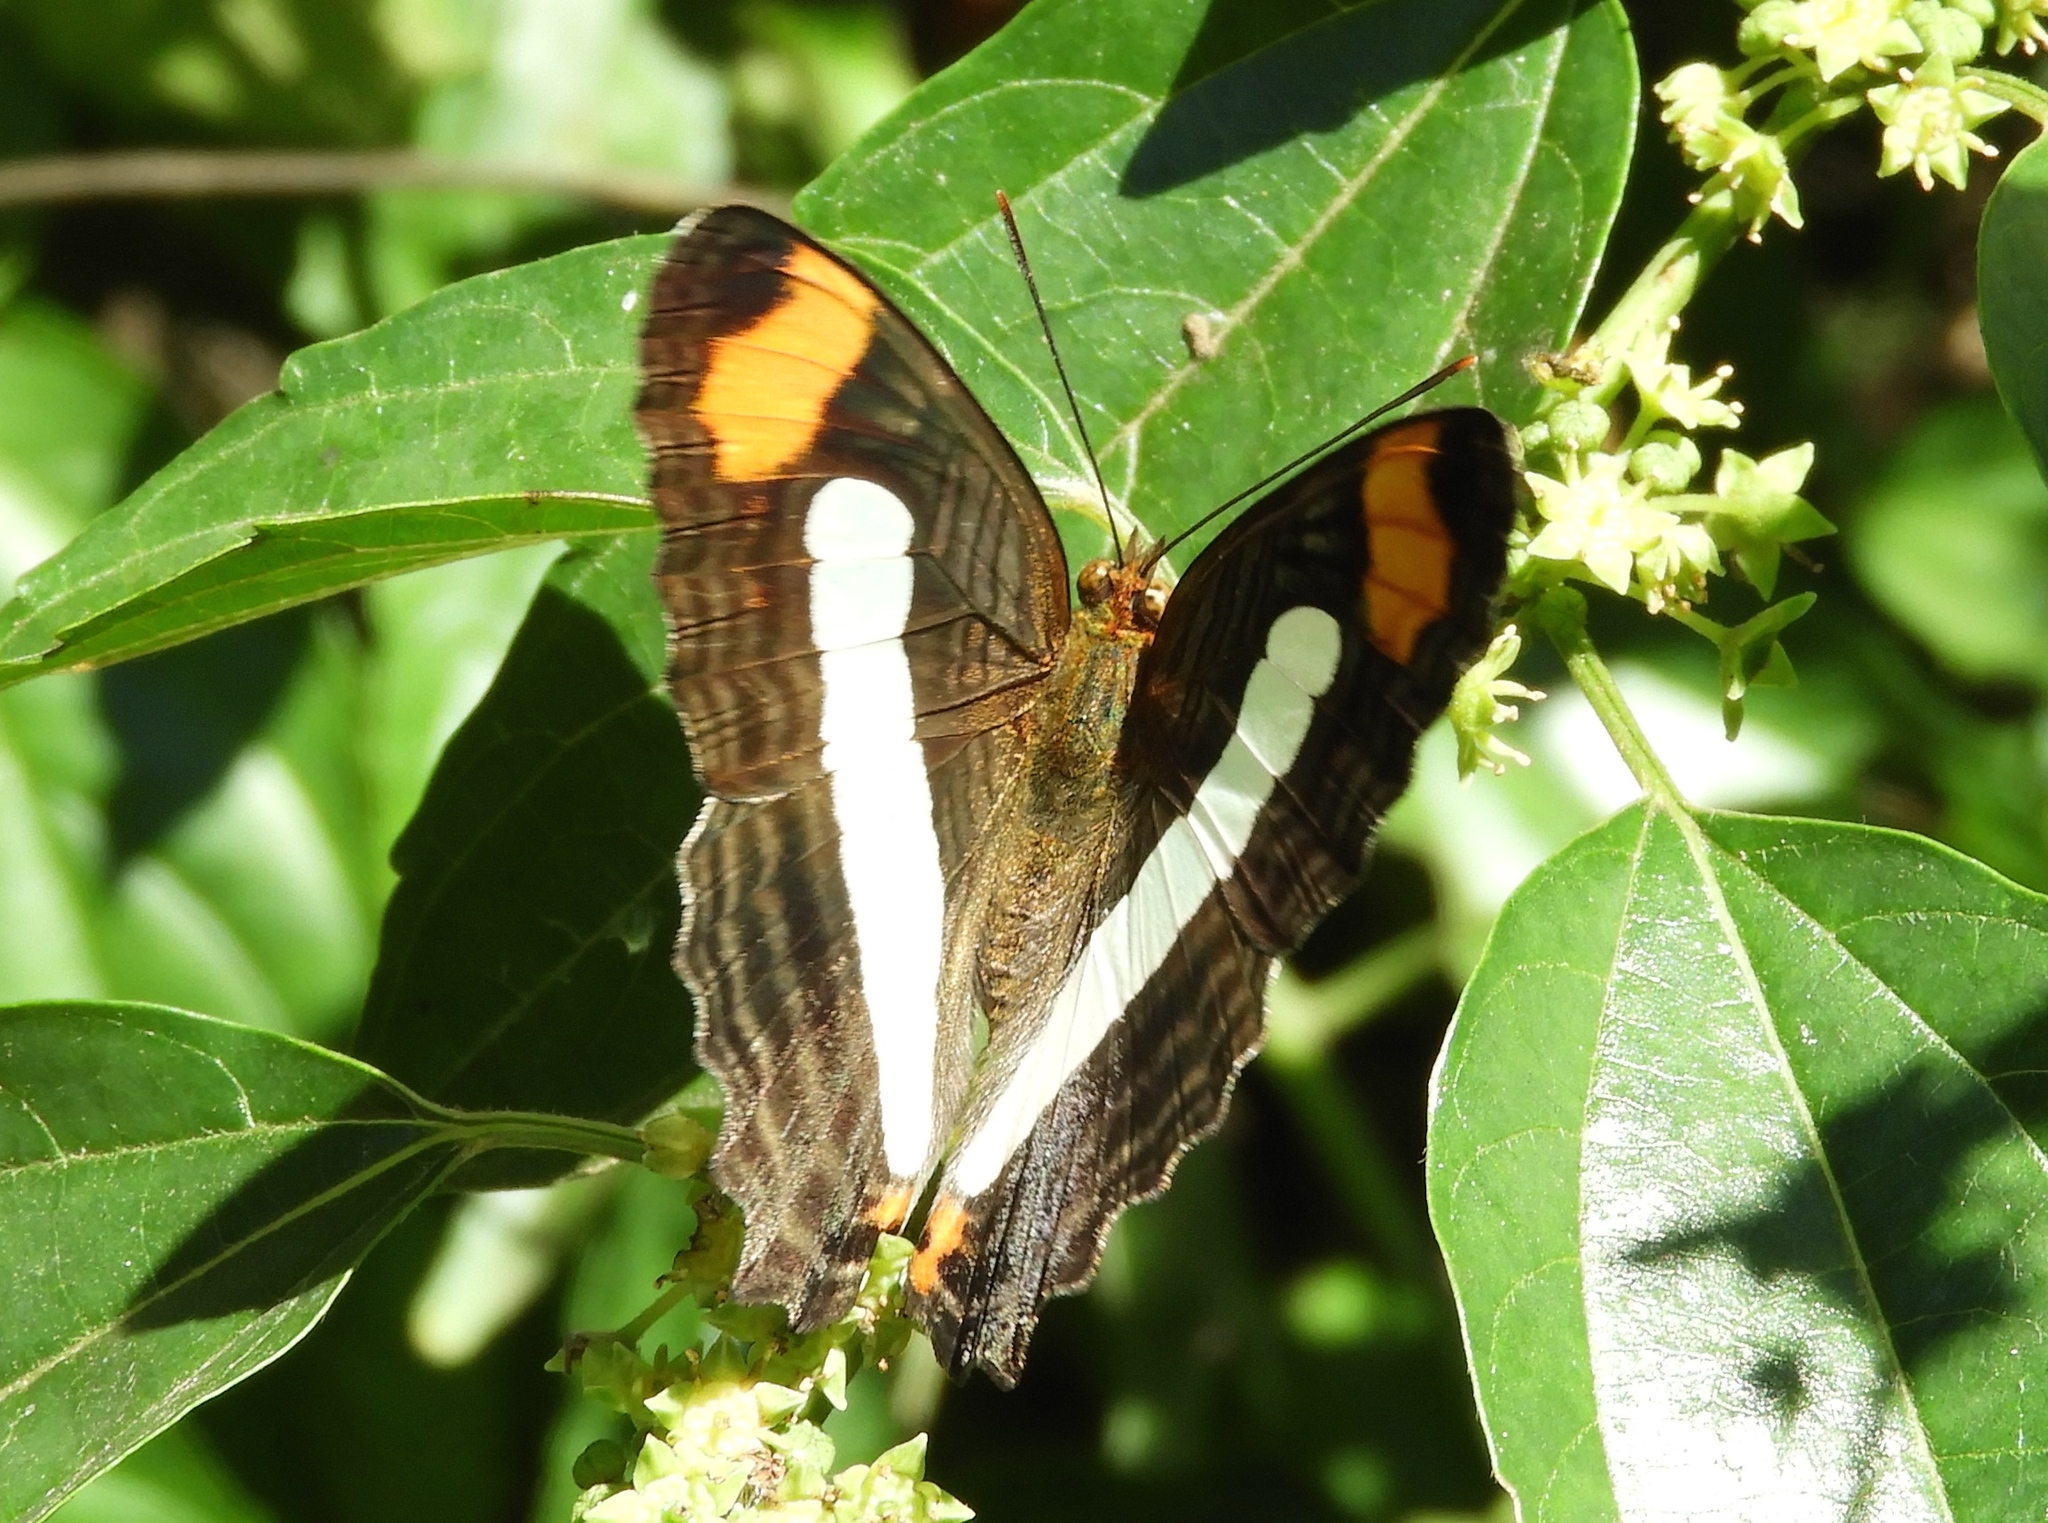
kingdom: Animalia
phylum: Arthropoda
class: Insecta
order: Lepidoptera
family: Nymphalidae
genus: Limenitis
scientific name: Limenitis iphiclus
